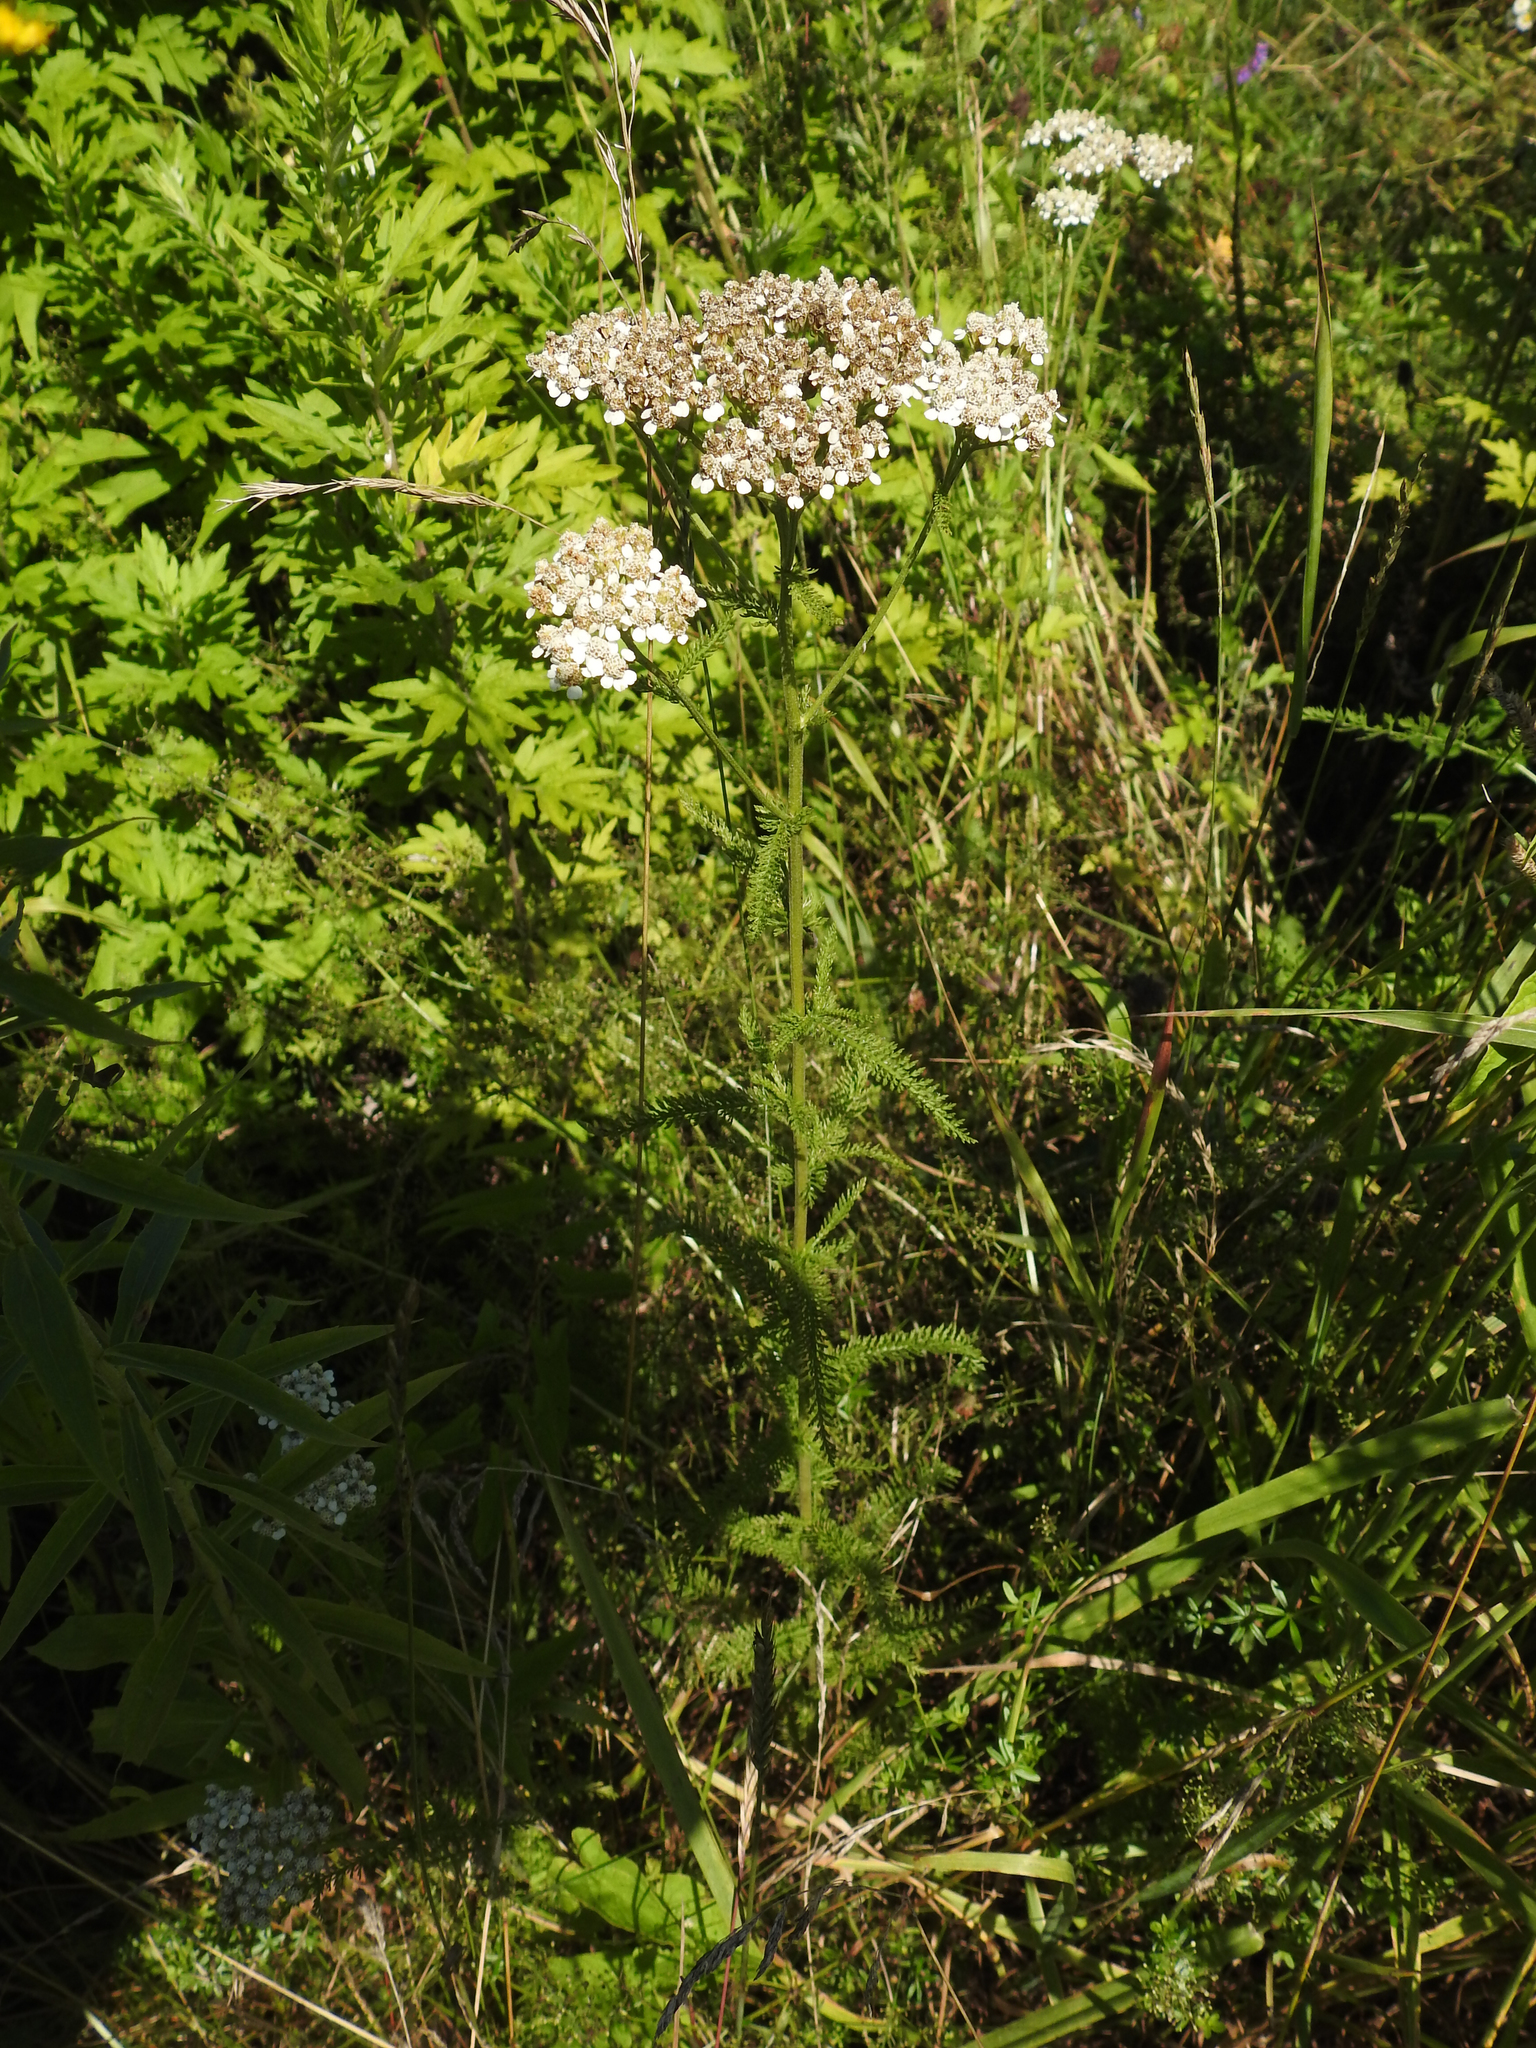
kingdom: Plantae
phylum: Tracheophyta
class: Magnoliopsida
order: Asterales
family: Asteraceae
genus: Achillea
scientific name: Achillea millefolium
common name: Yarrow
